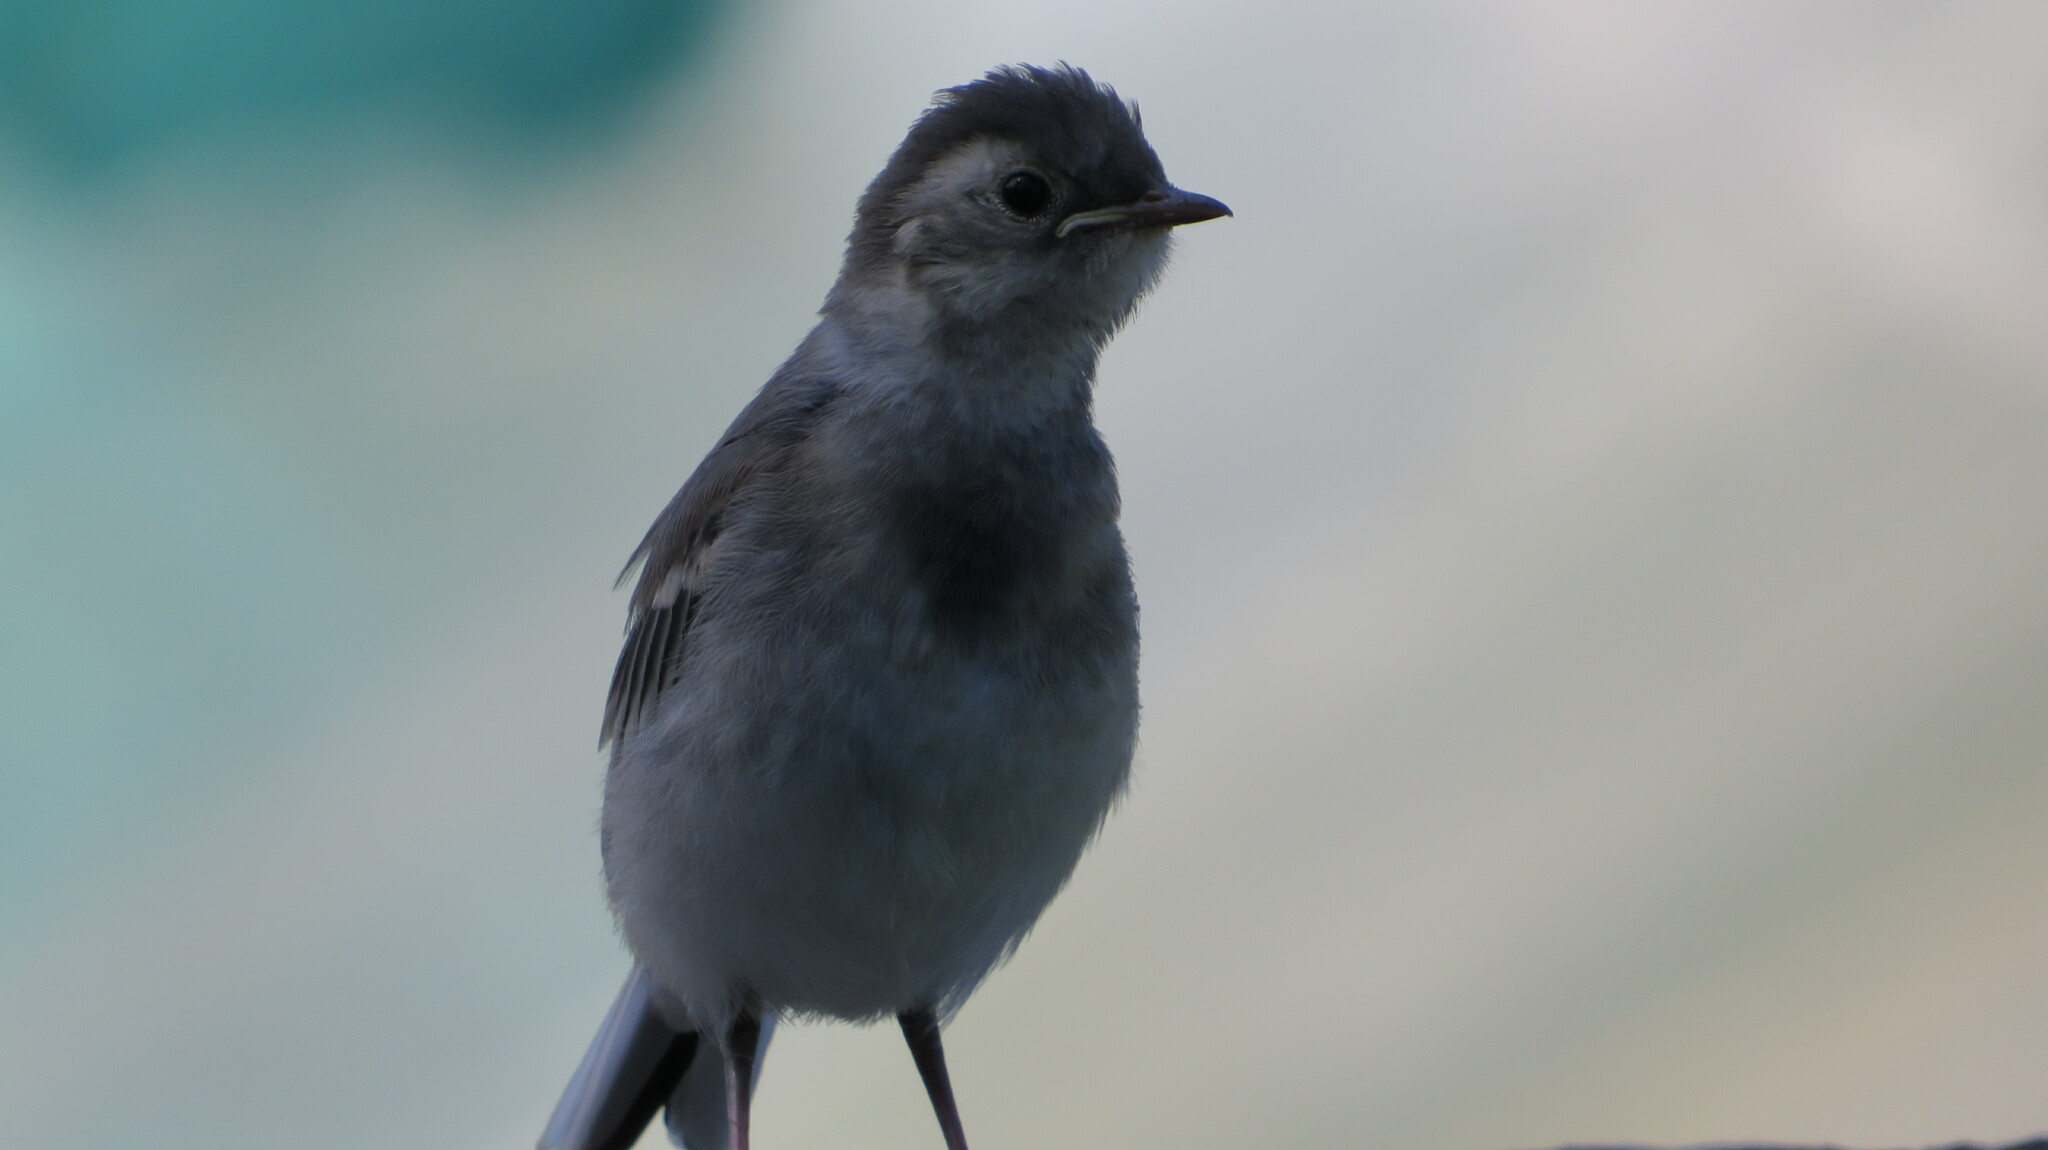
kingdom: Animalia
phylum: Chordata
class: Aves
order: Passeriformes
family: Motacillidae
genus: Motacilla
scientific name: Motacilla alba
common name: White wagtail
